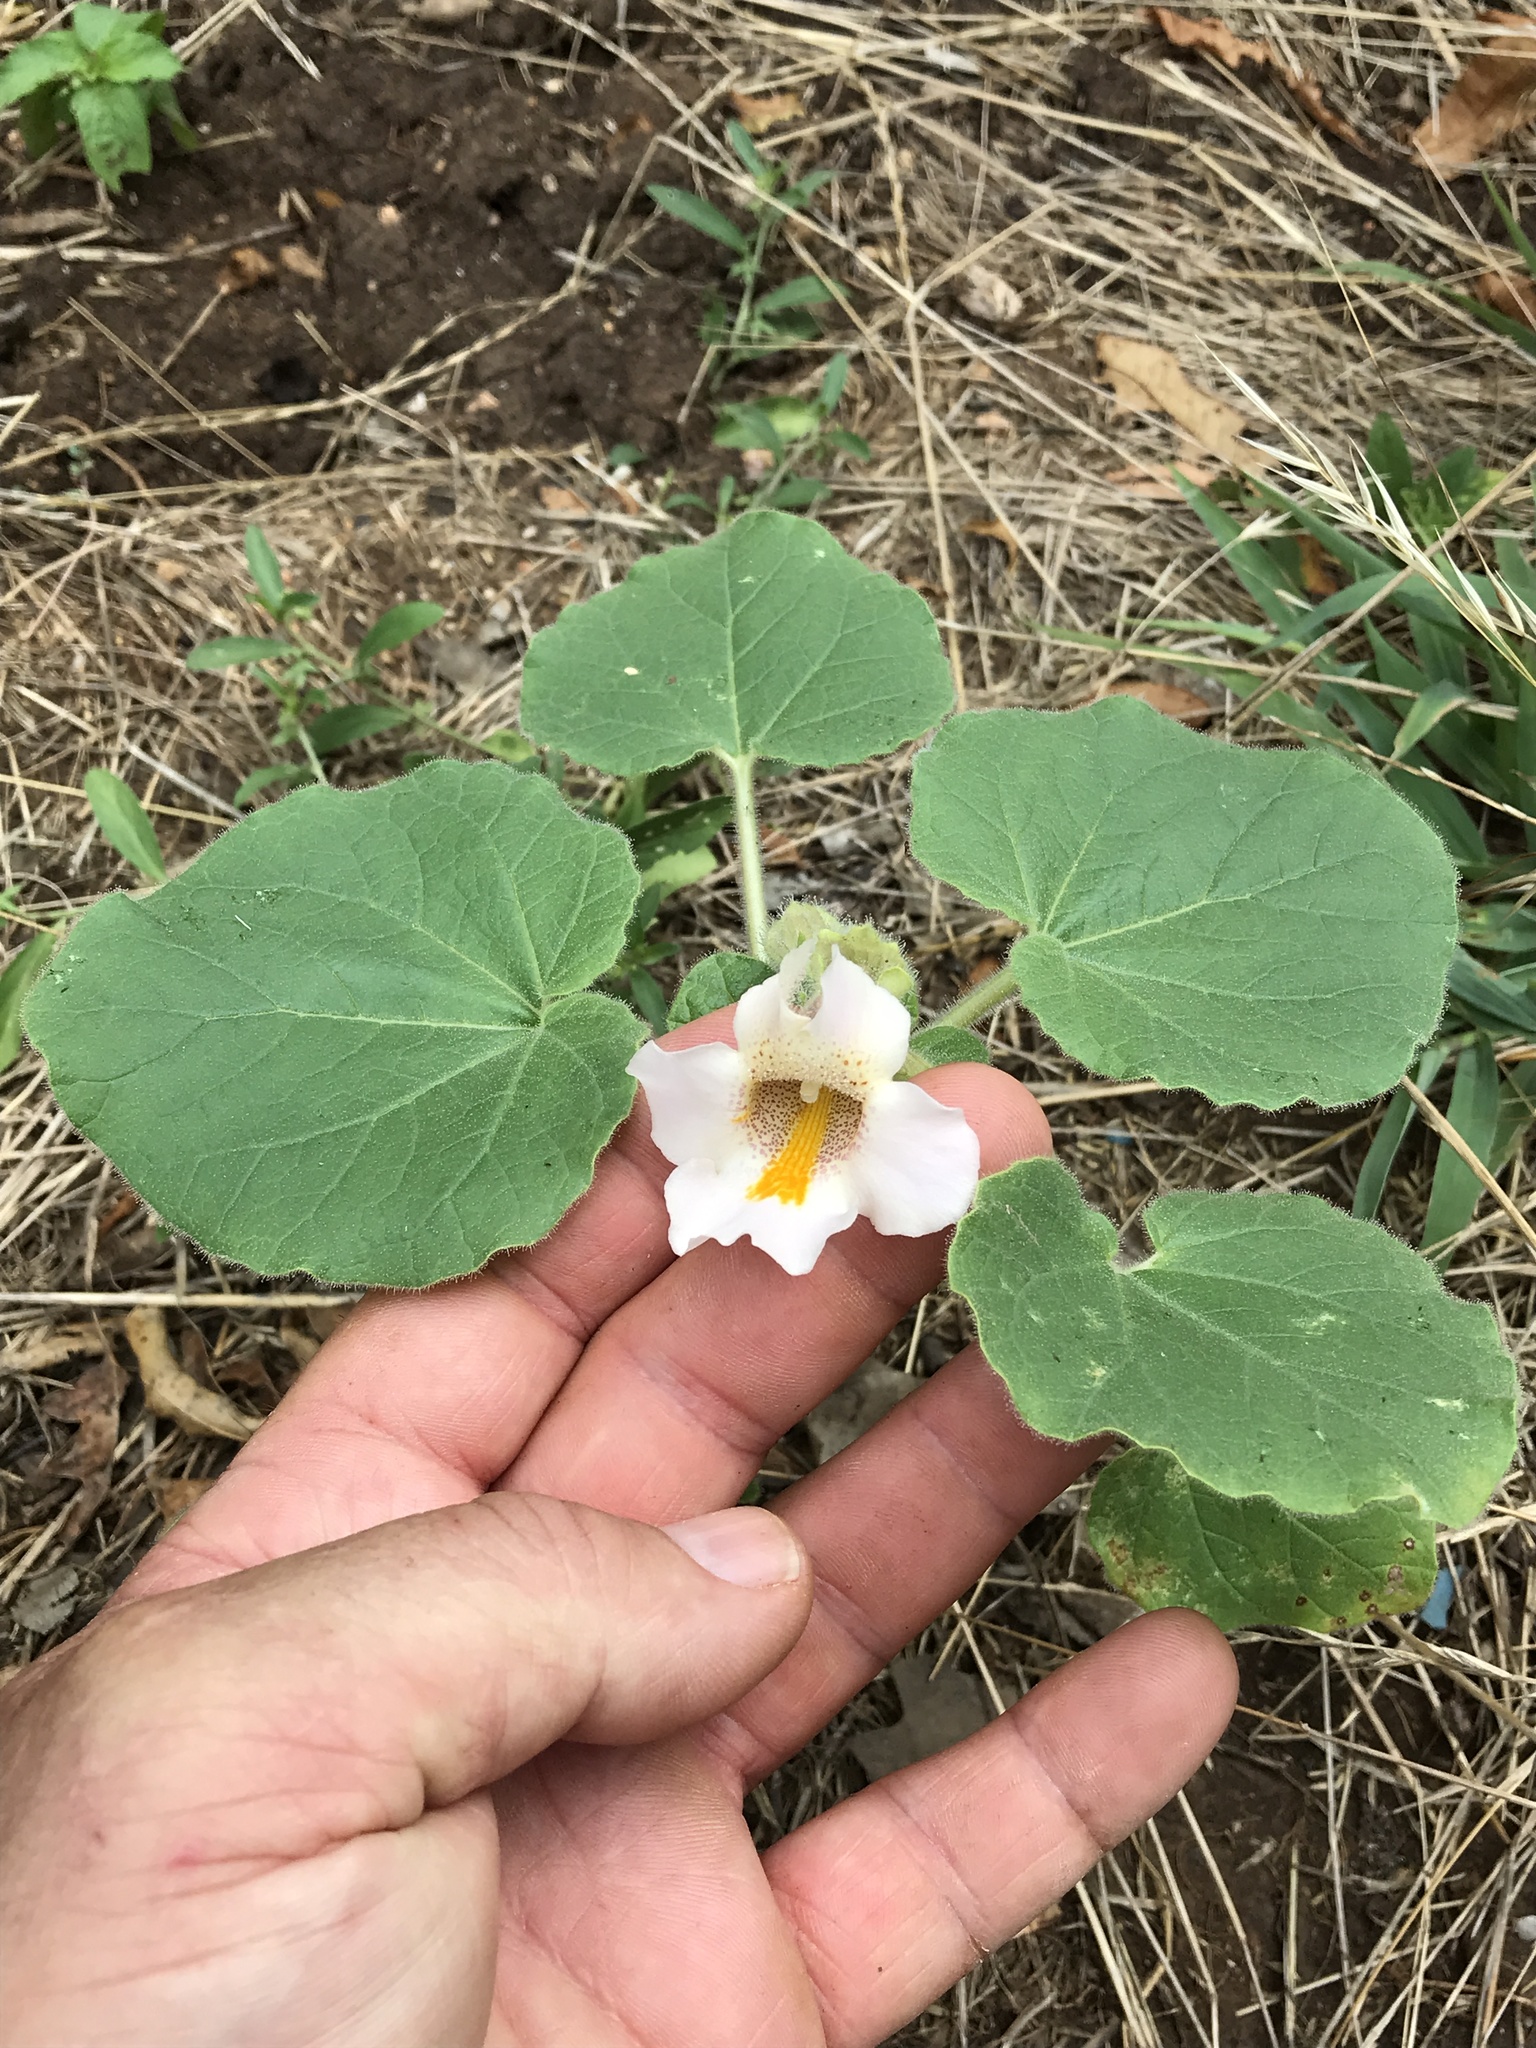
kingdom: Plantae
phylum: Tracheophyta
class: Magnoliopsida
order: Lamiales
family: Martyniaceae
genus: Proboscidea
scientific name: Proboscidea louisianica
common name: Elephant tusks
